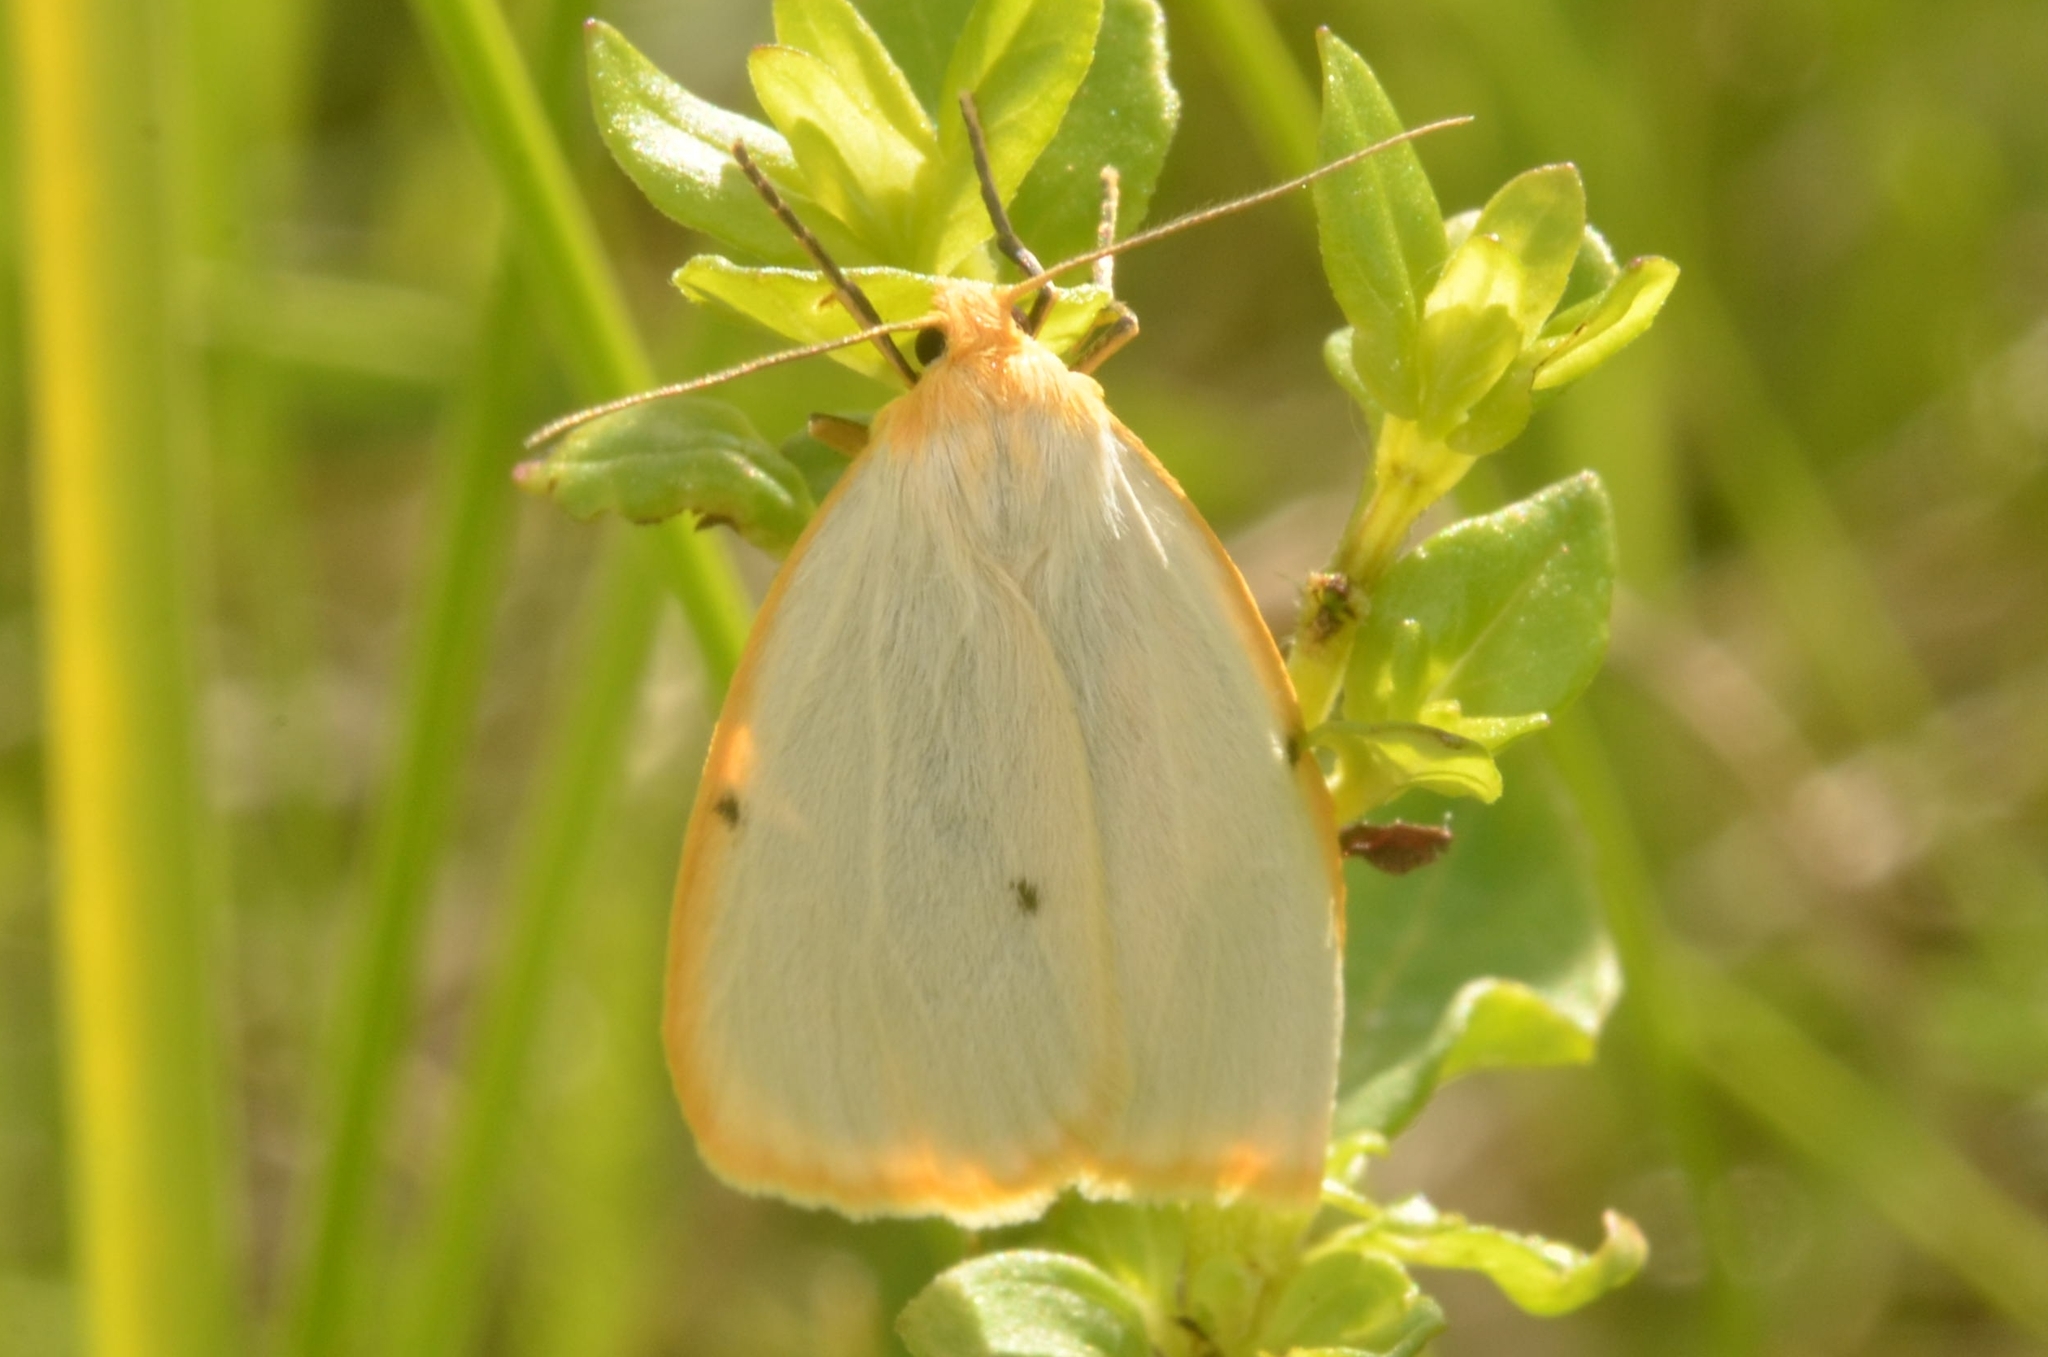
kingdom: Animalia
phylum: Arthropoda
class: Insecta
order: Lepidoptera
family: Erebidae
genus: Cybosia
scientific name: Cybosia mesomella
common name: Four-dotted footman
